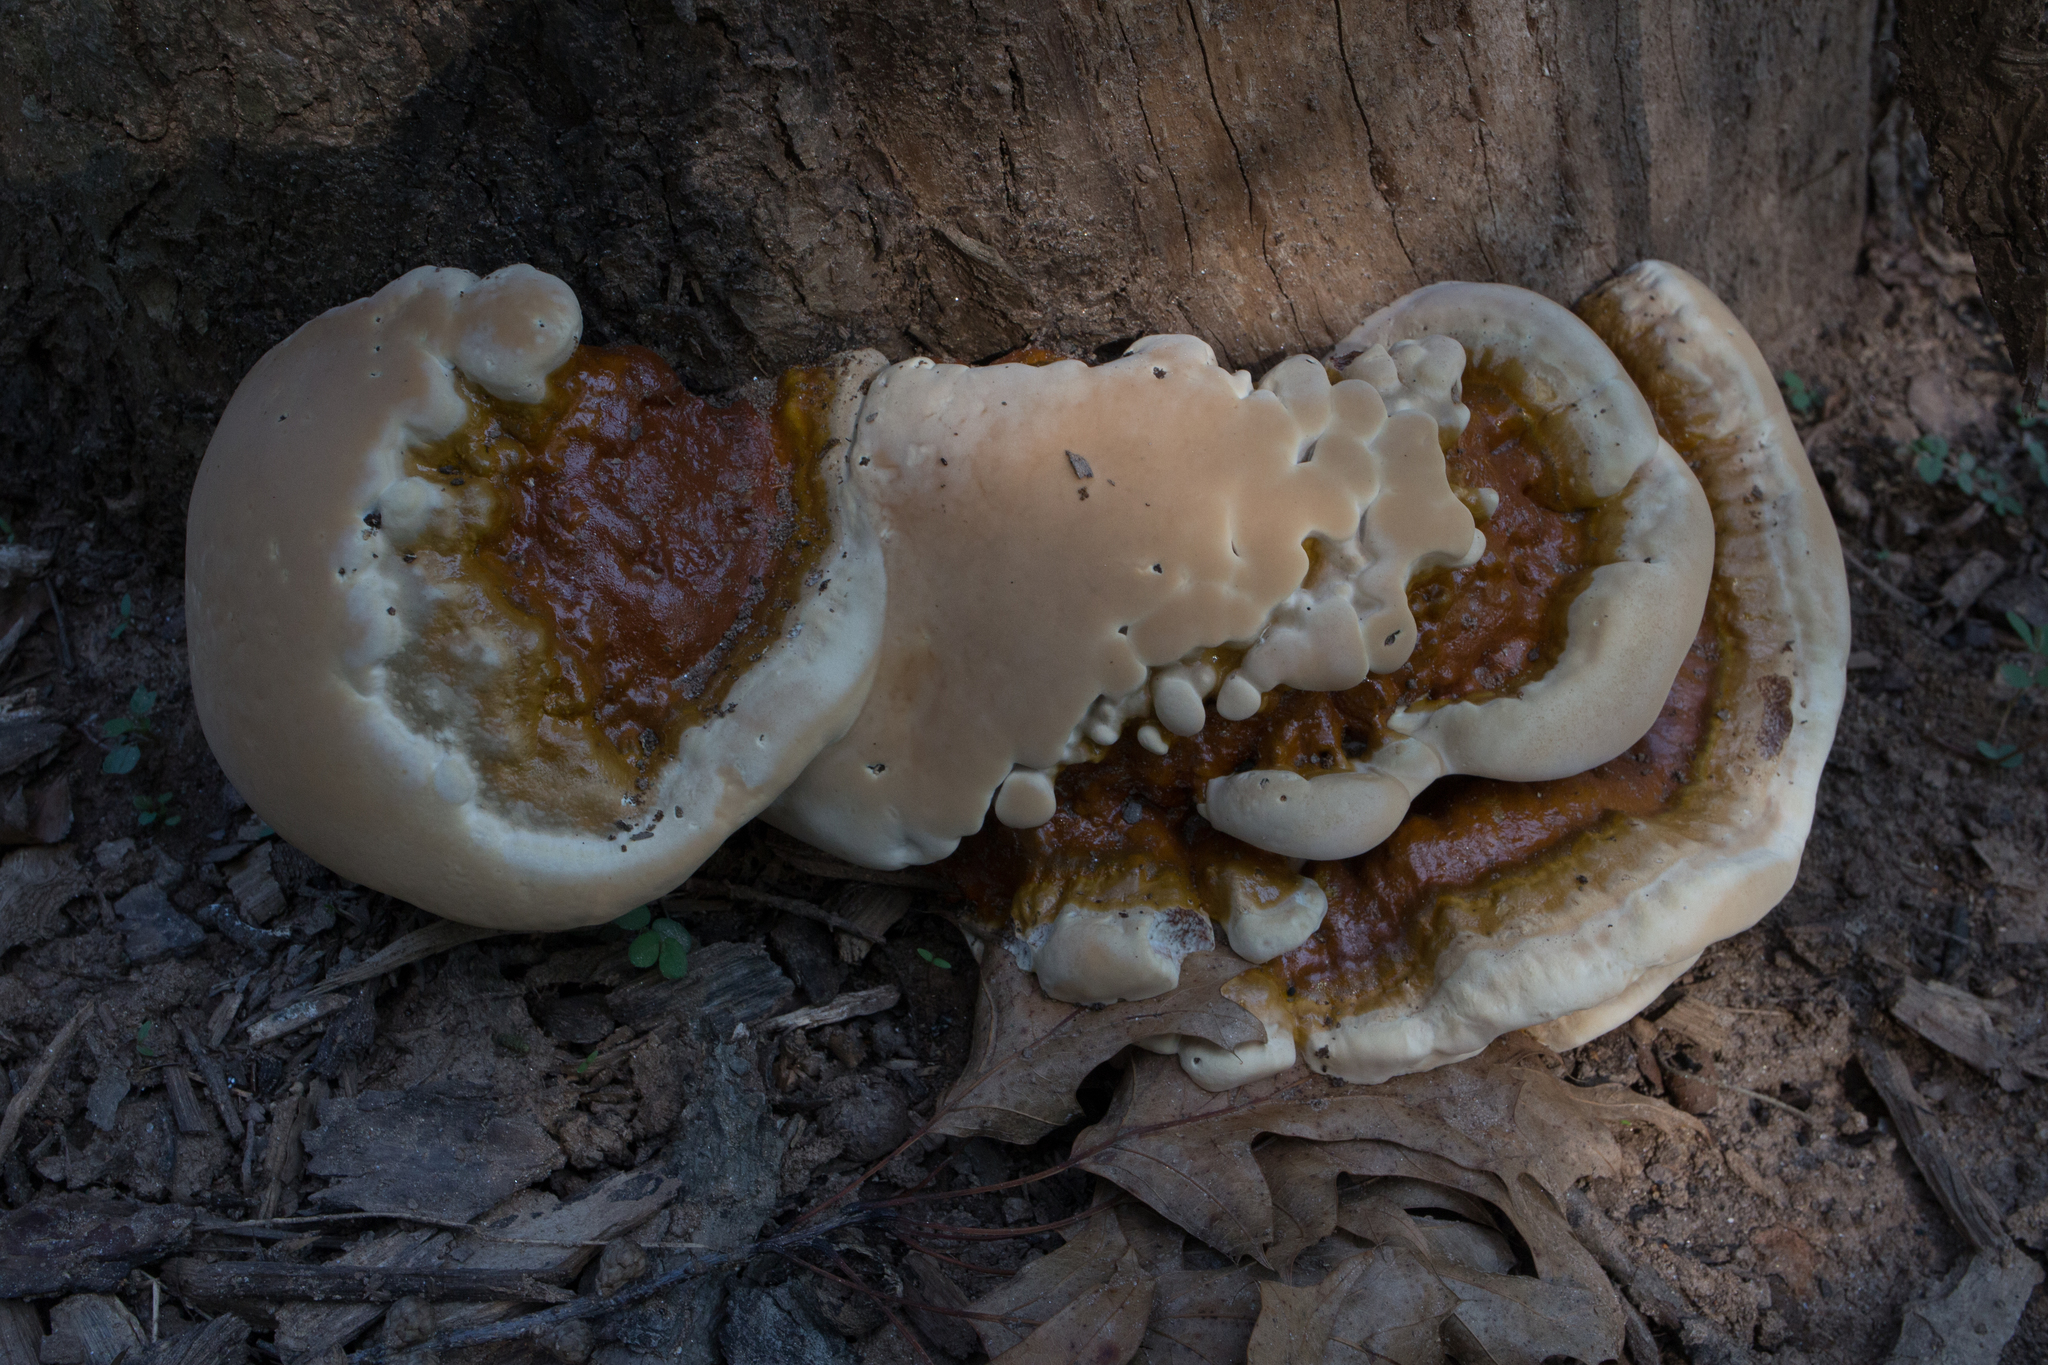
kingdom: Fungi
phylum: Basidiomycota
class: Agaricomycetes
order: Polyporales
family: Polyporaceae
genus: Ganoderma
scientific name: Ganoderma resinaceum
